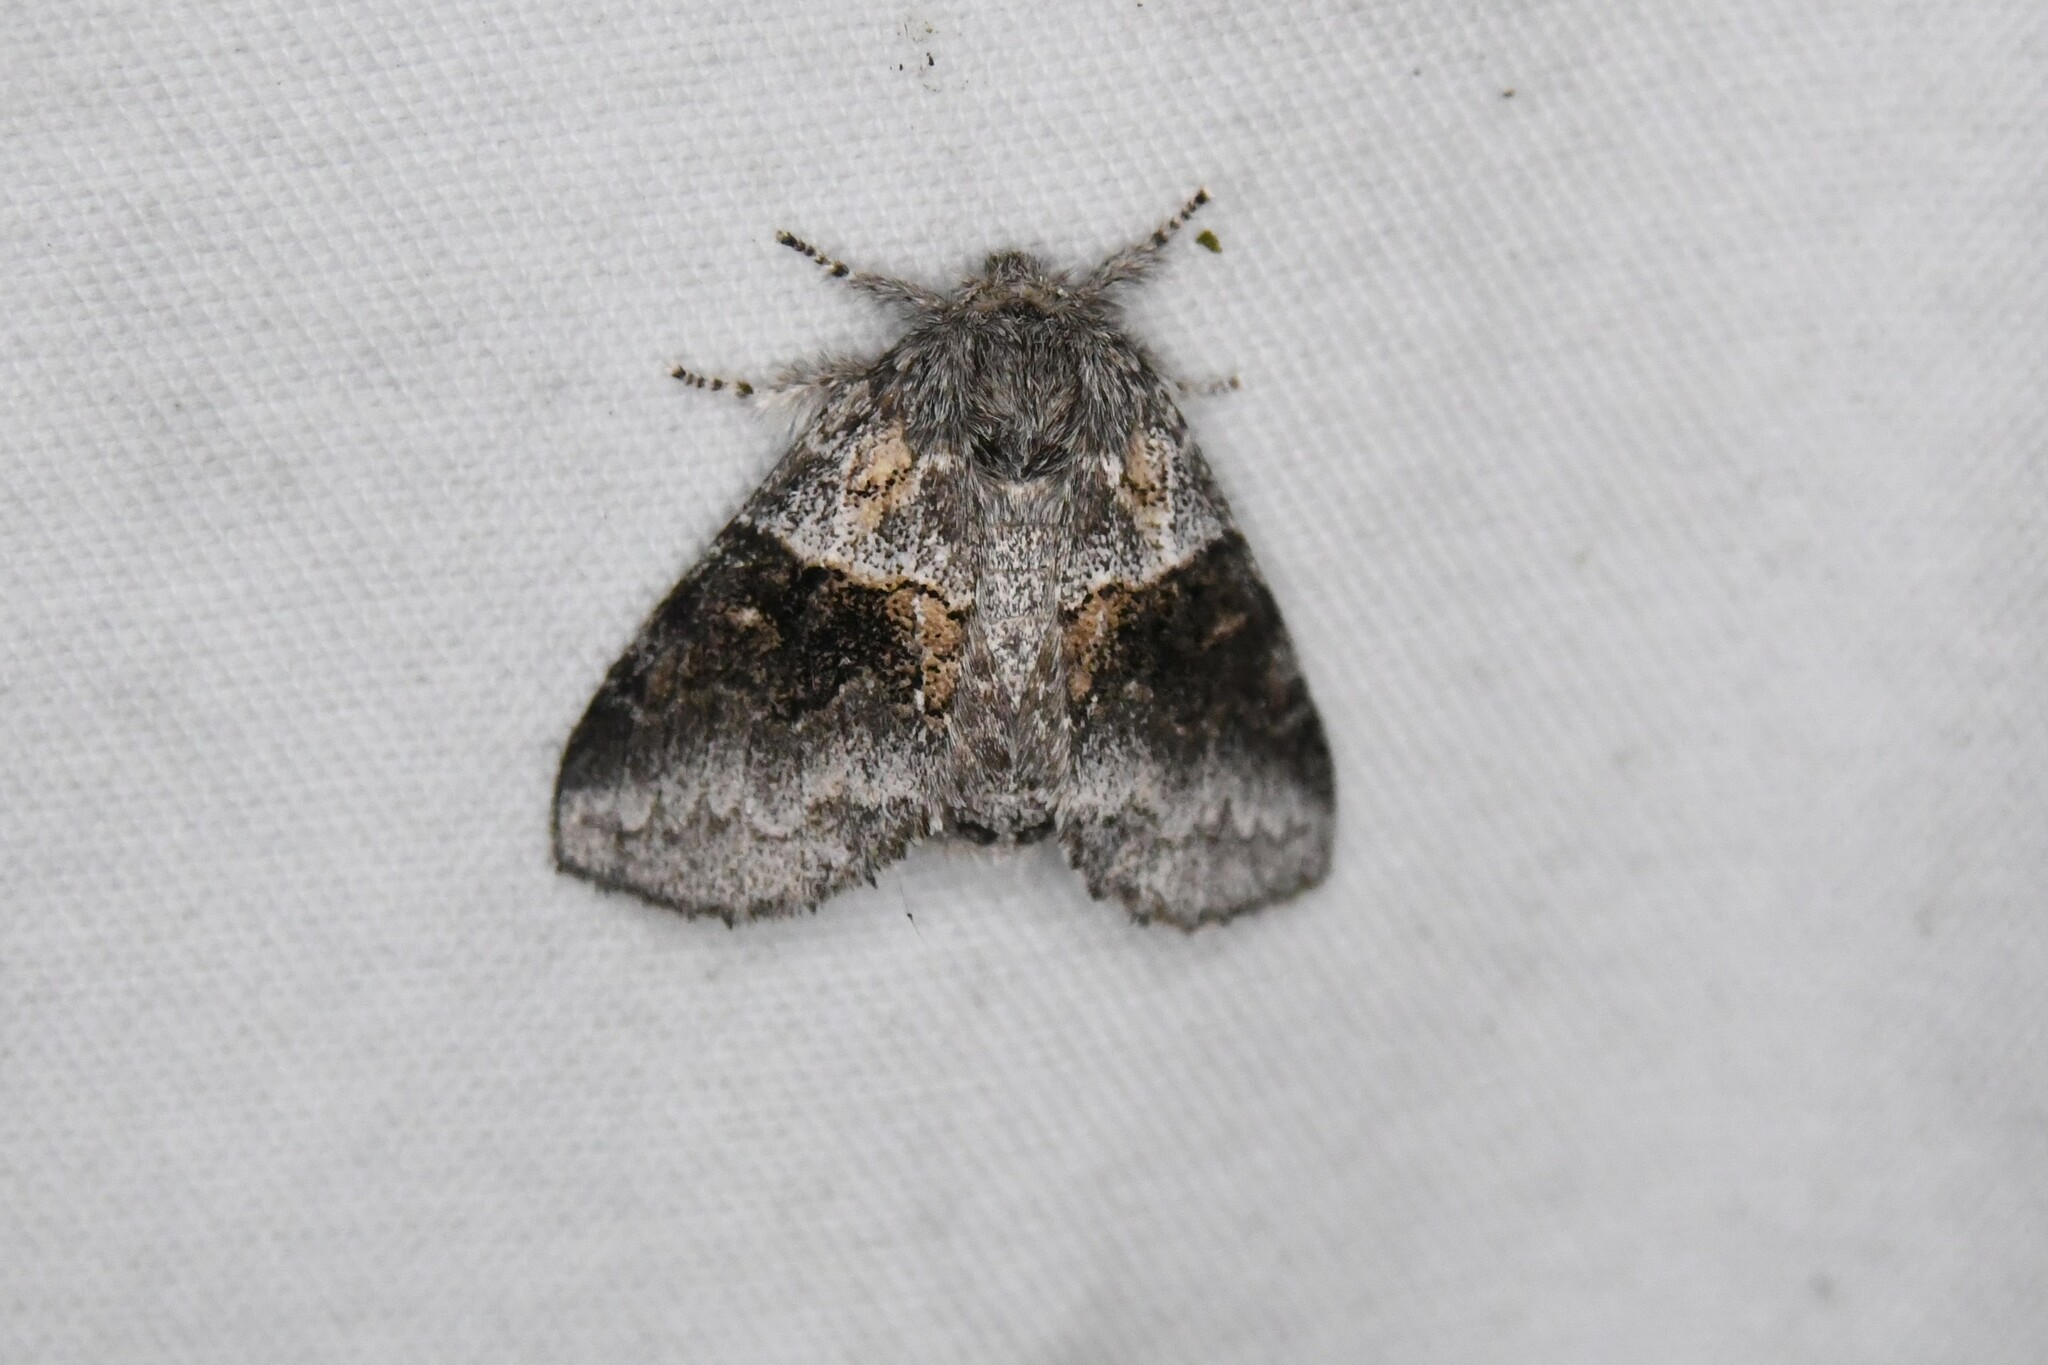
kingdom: Animalia
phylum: Arthropoda
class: Insecta
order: Lepidoptera
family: Notodontidae
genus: Gluphisia
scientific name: Gluphisia septentrionis
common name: Common gluphisia
